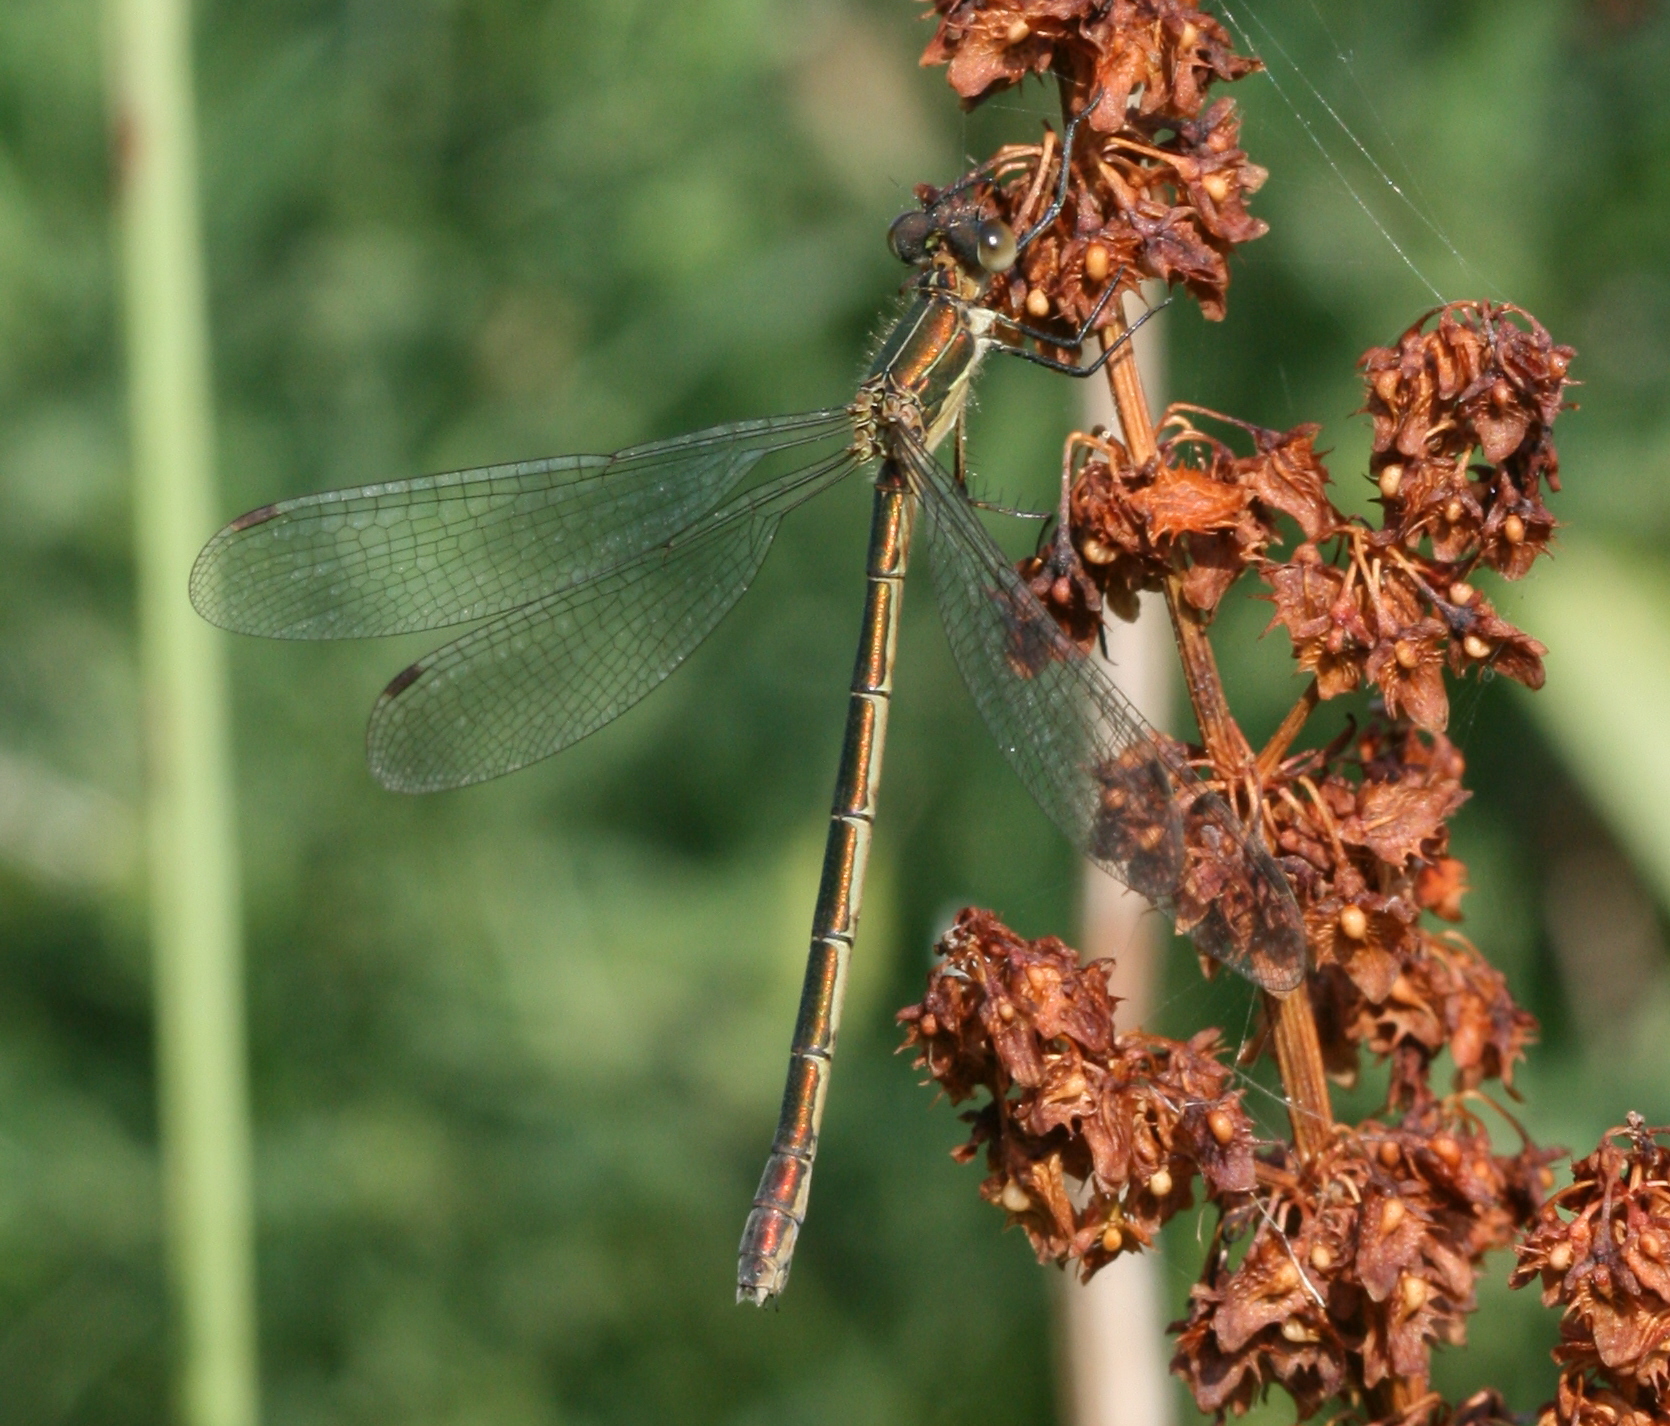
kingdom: Animalia
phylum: Arthropoda
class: Insecta
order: Odonata
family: Lestidae
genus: Lestes
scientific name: Lestes sponsa
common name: Common spreadwing
